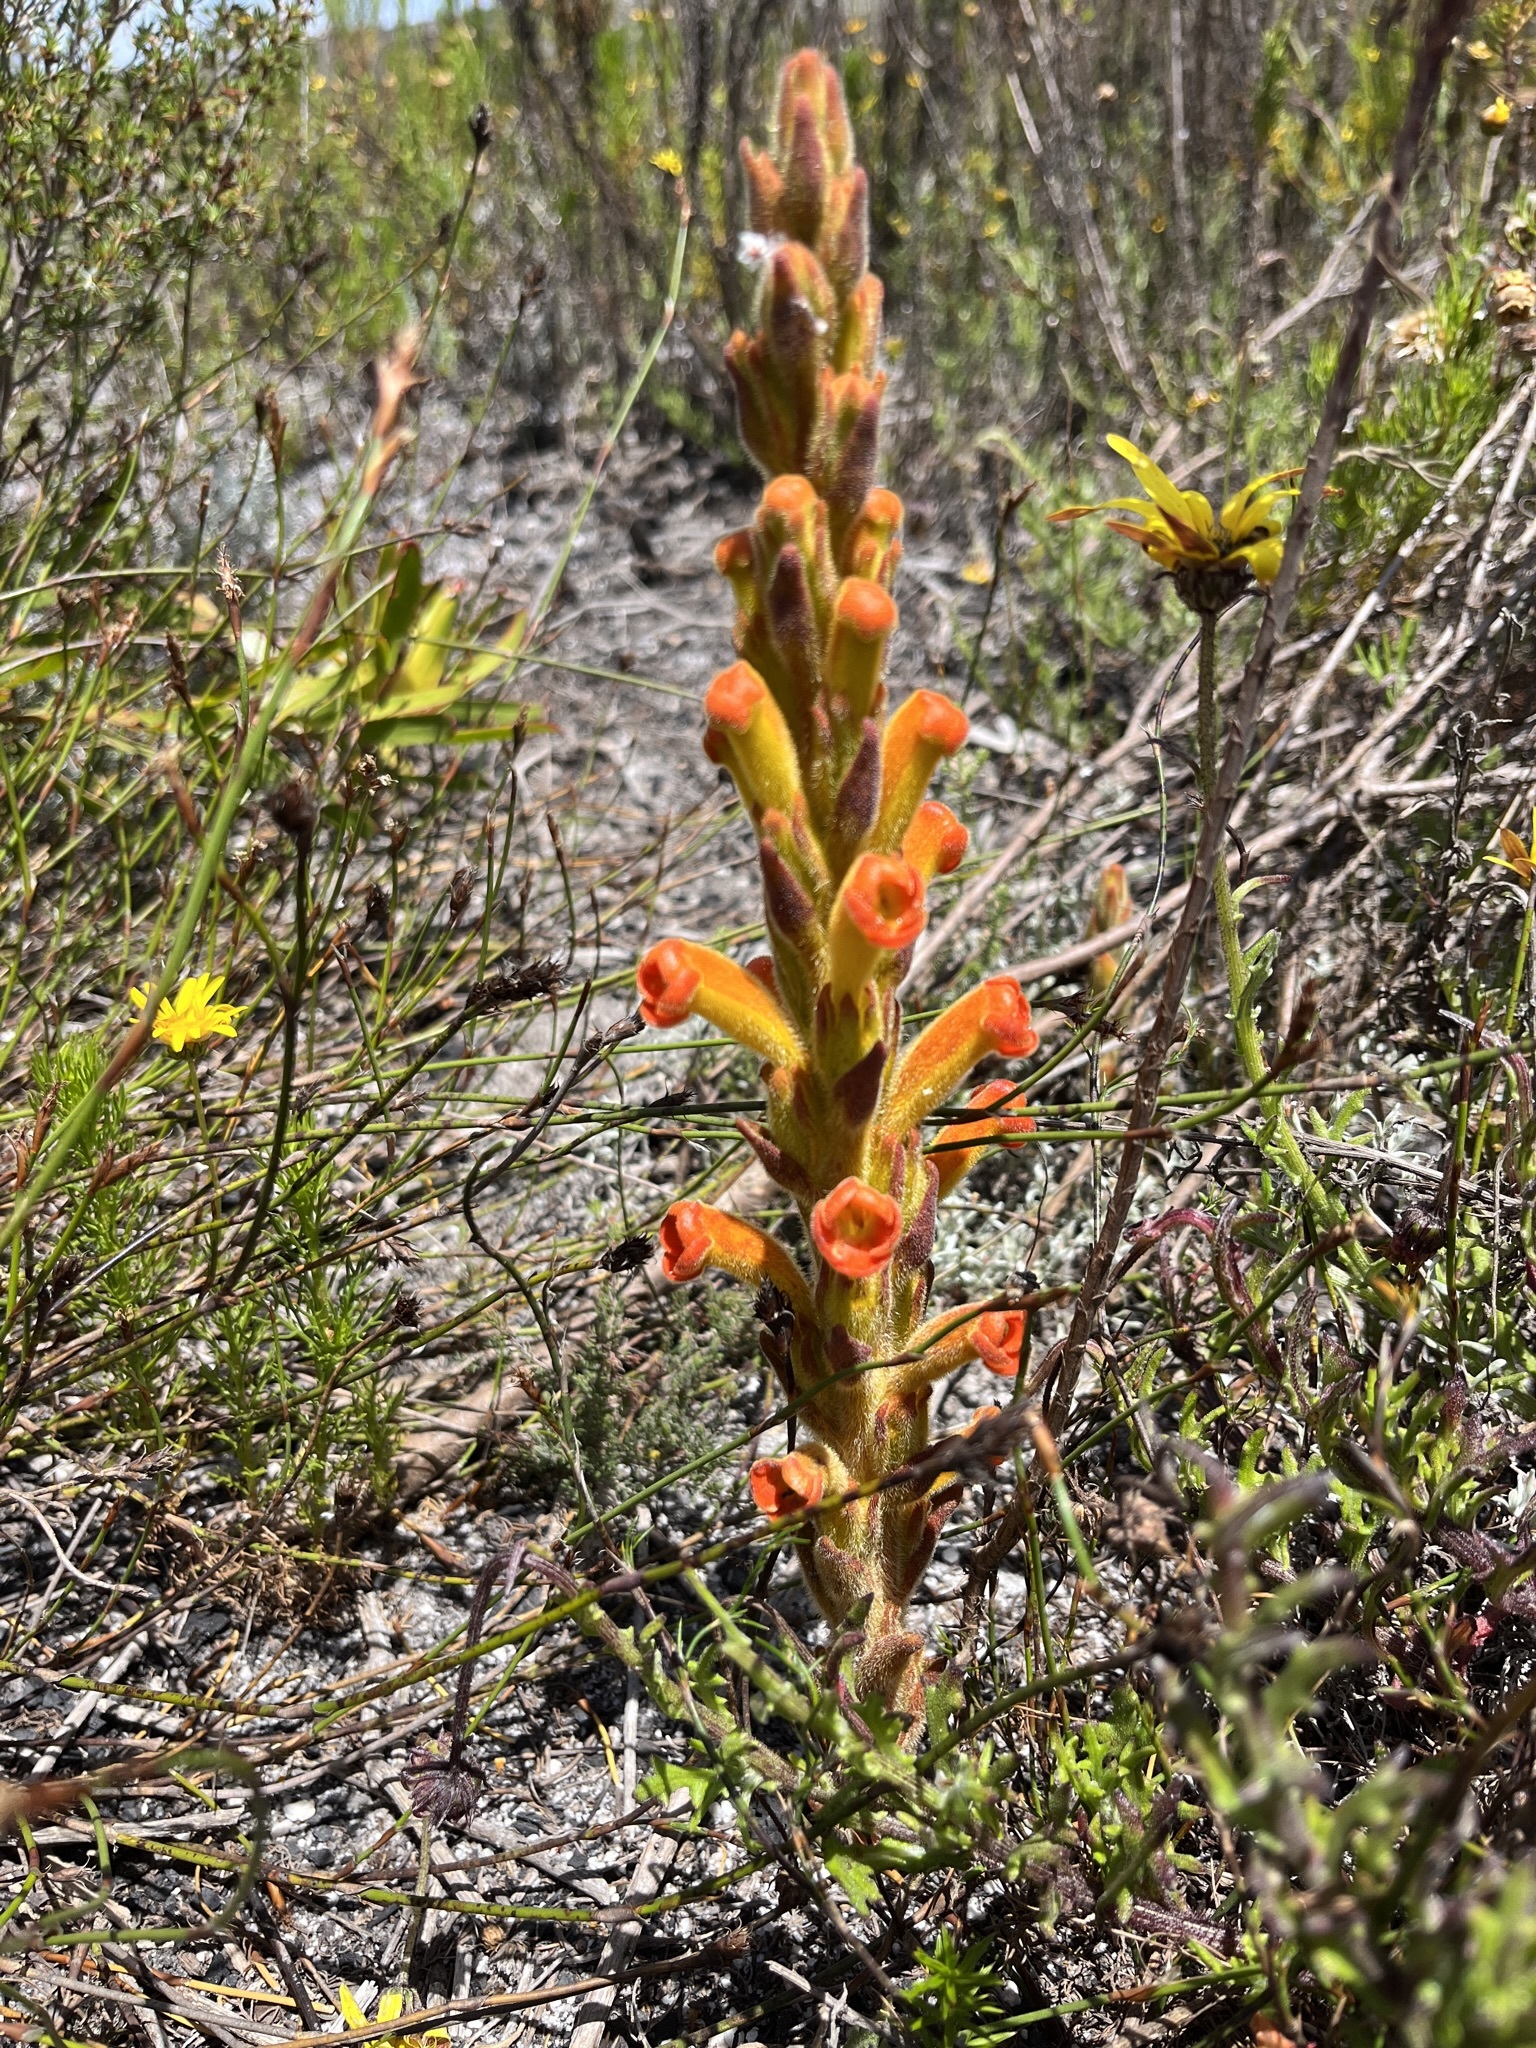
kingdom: Plantae
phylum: Tracheophyta
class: Magnoliopsida
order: Lamiales
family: Orobanchaceae
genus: Harveya
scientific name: Harveya squamosa
